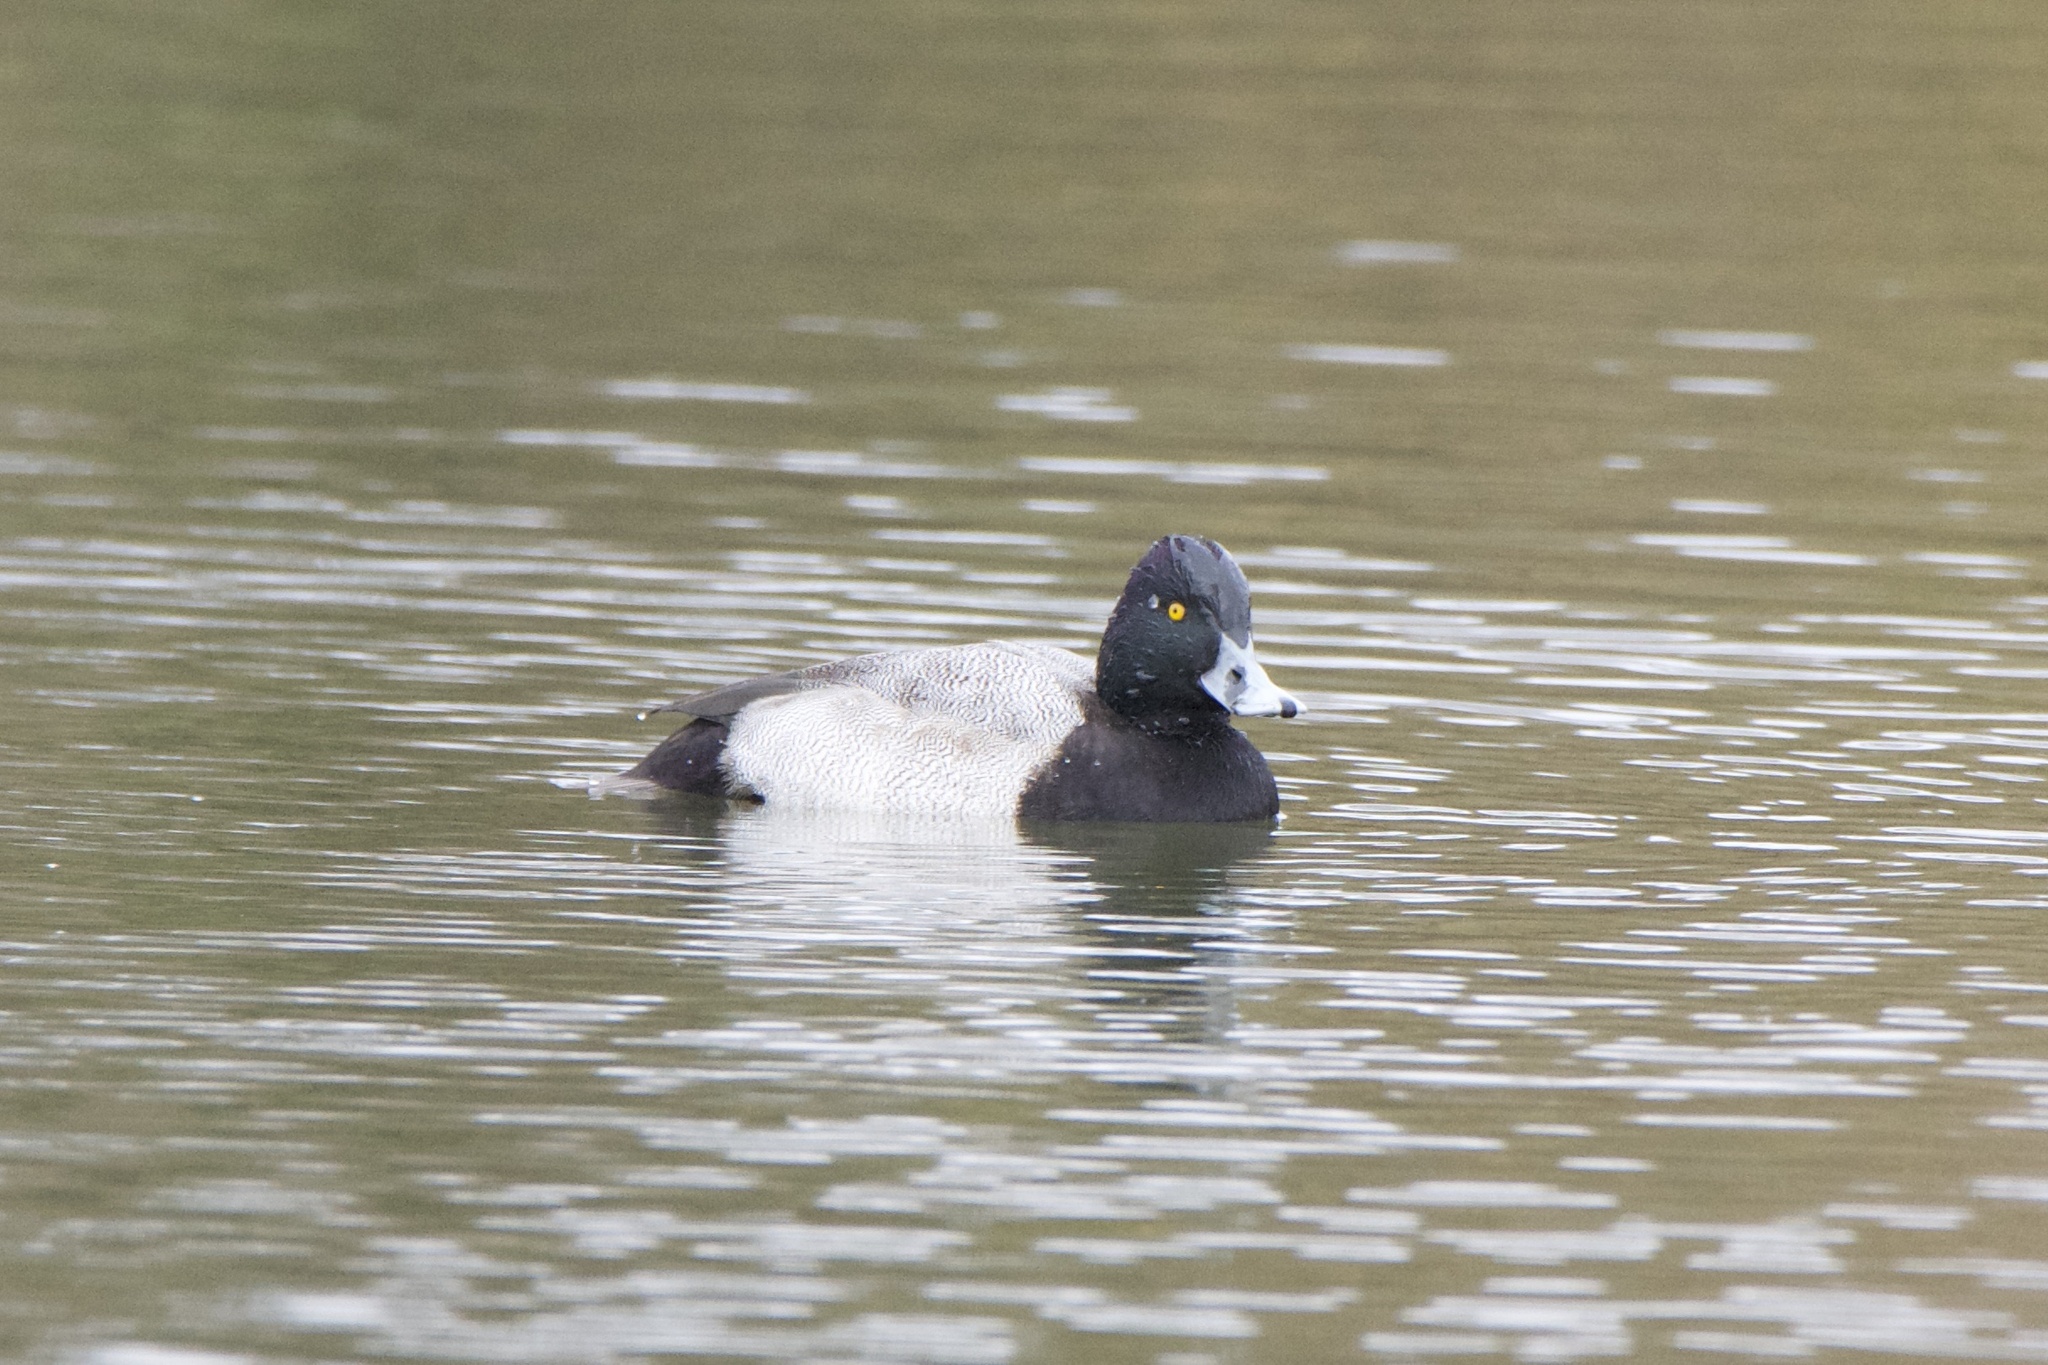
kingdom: Animalia
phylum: Chordata
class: Aves
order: Anseriformes
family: Anatidae
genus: Aythya
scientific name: Aythya affinis
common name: Lesser scaup
